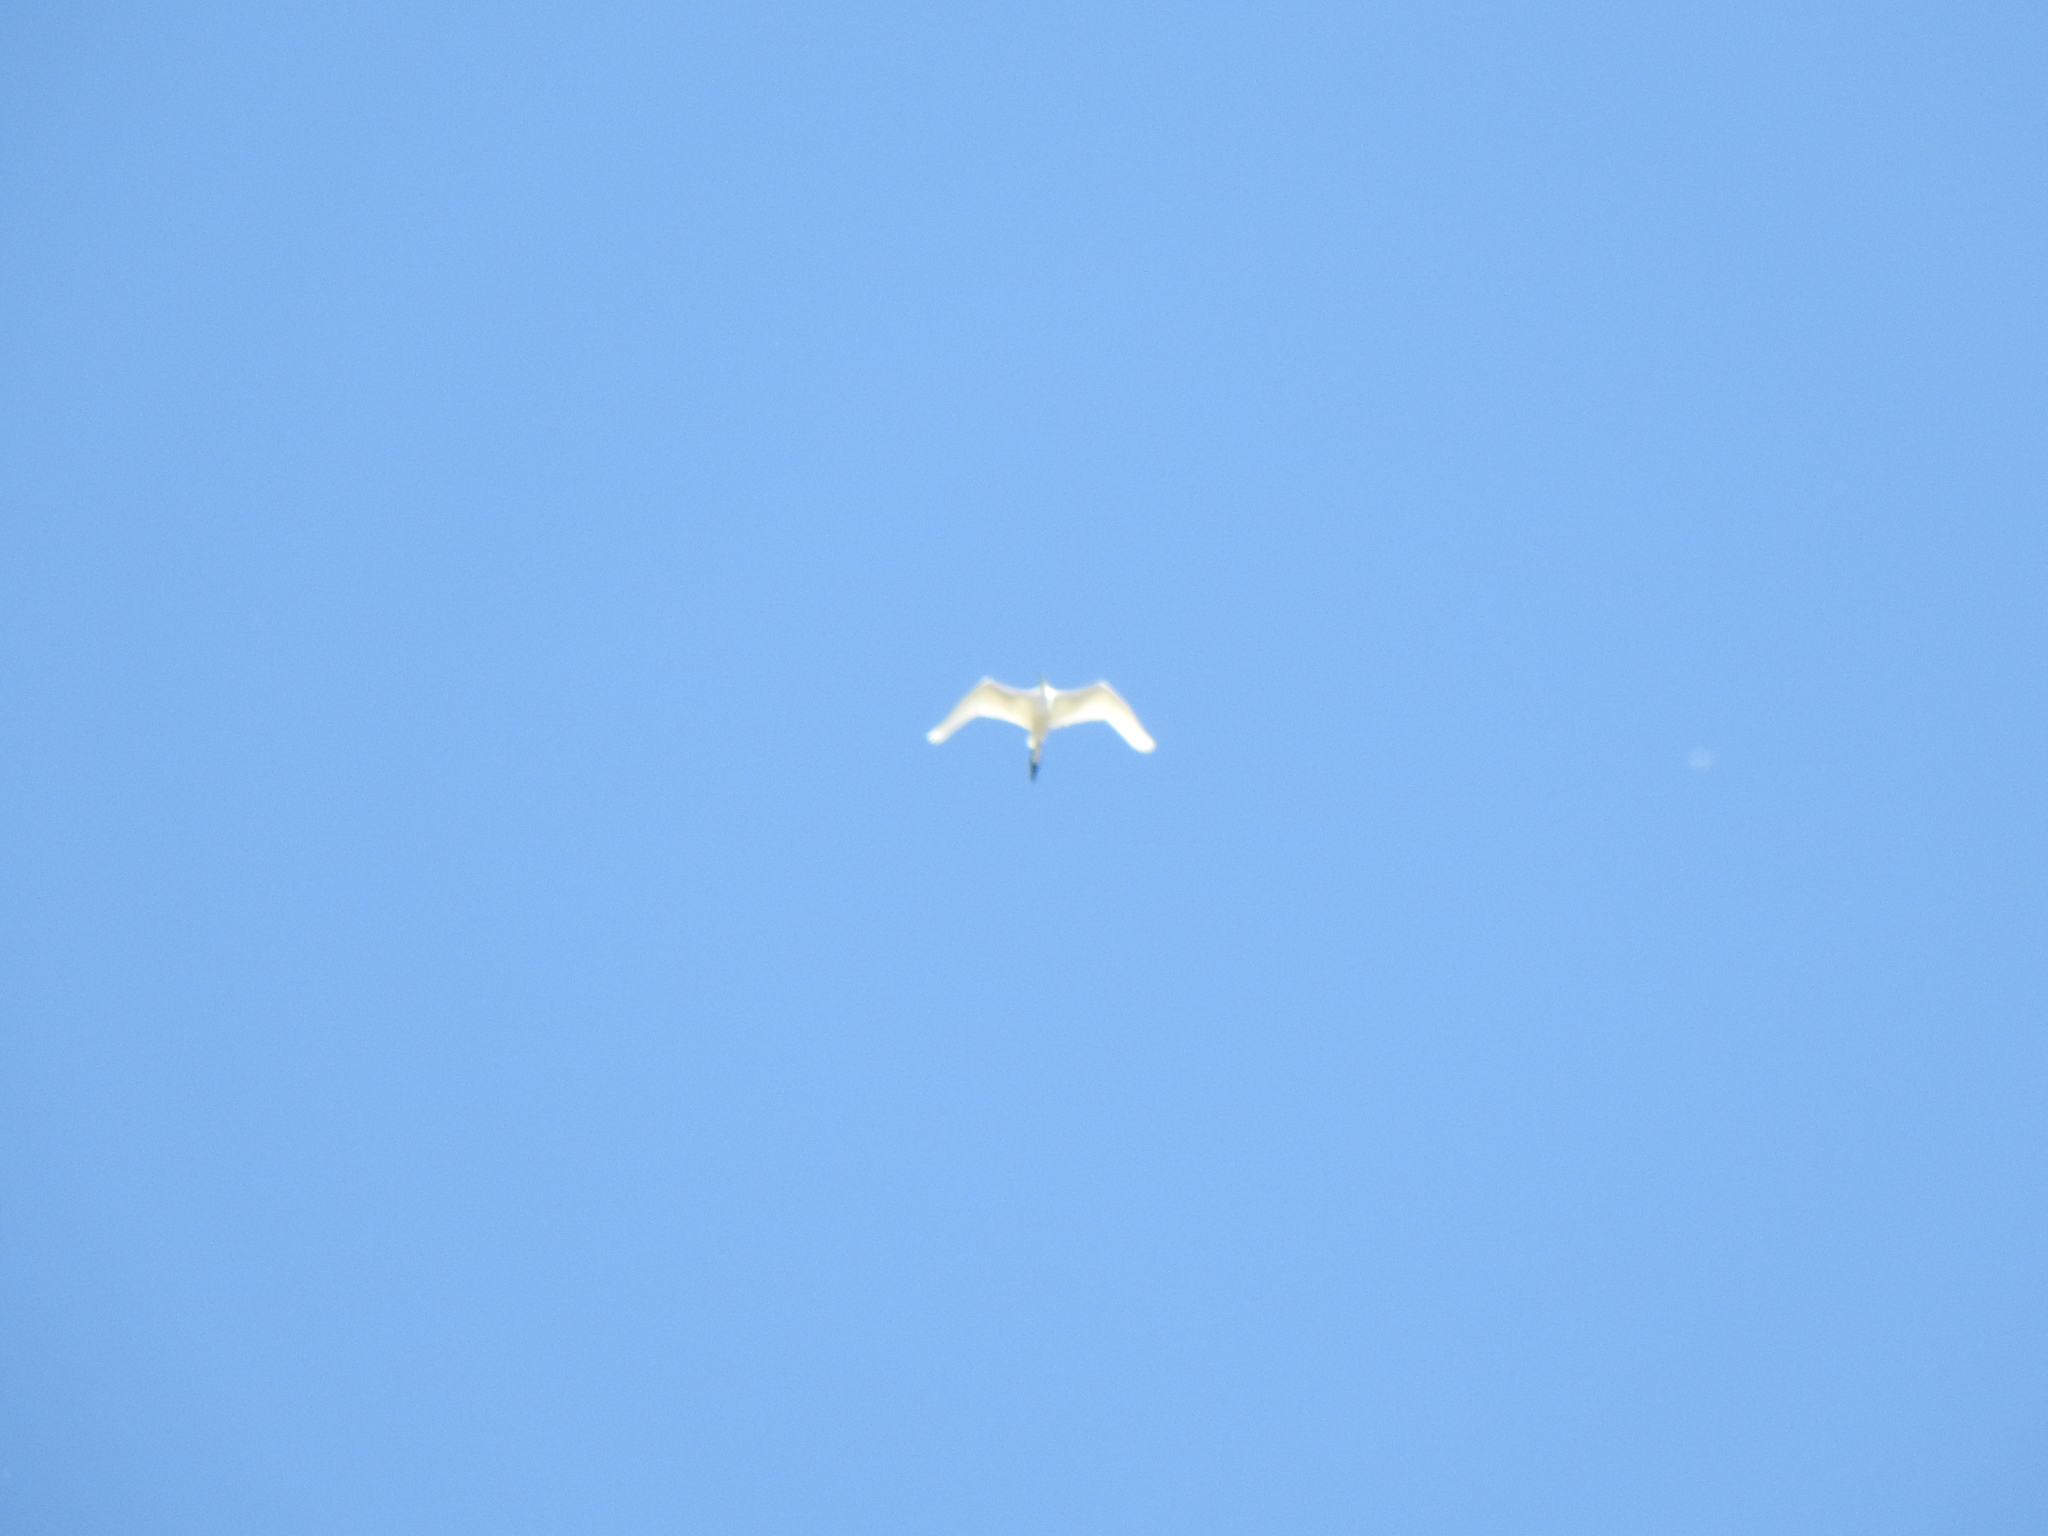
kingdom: Animalia
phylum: Chordata
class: Aves
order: Pelecaniformes
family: Ardeidae
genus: Ardea
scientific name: Ardea alba
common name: Great egret
